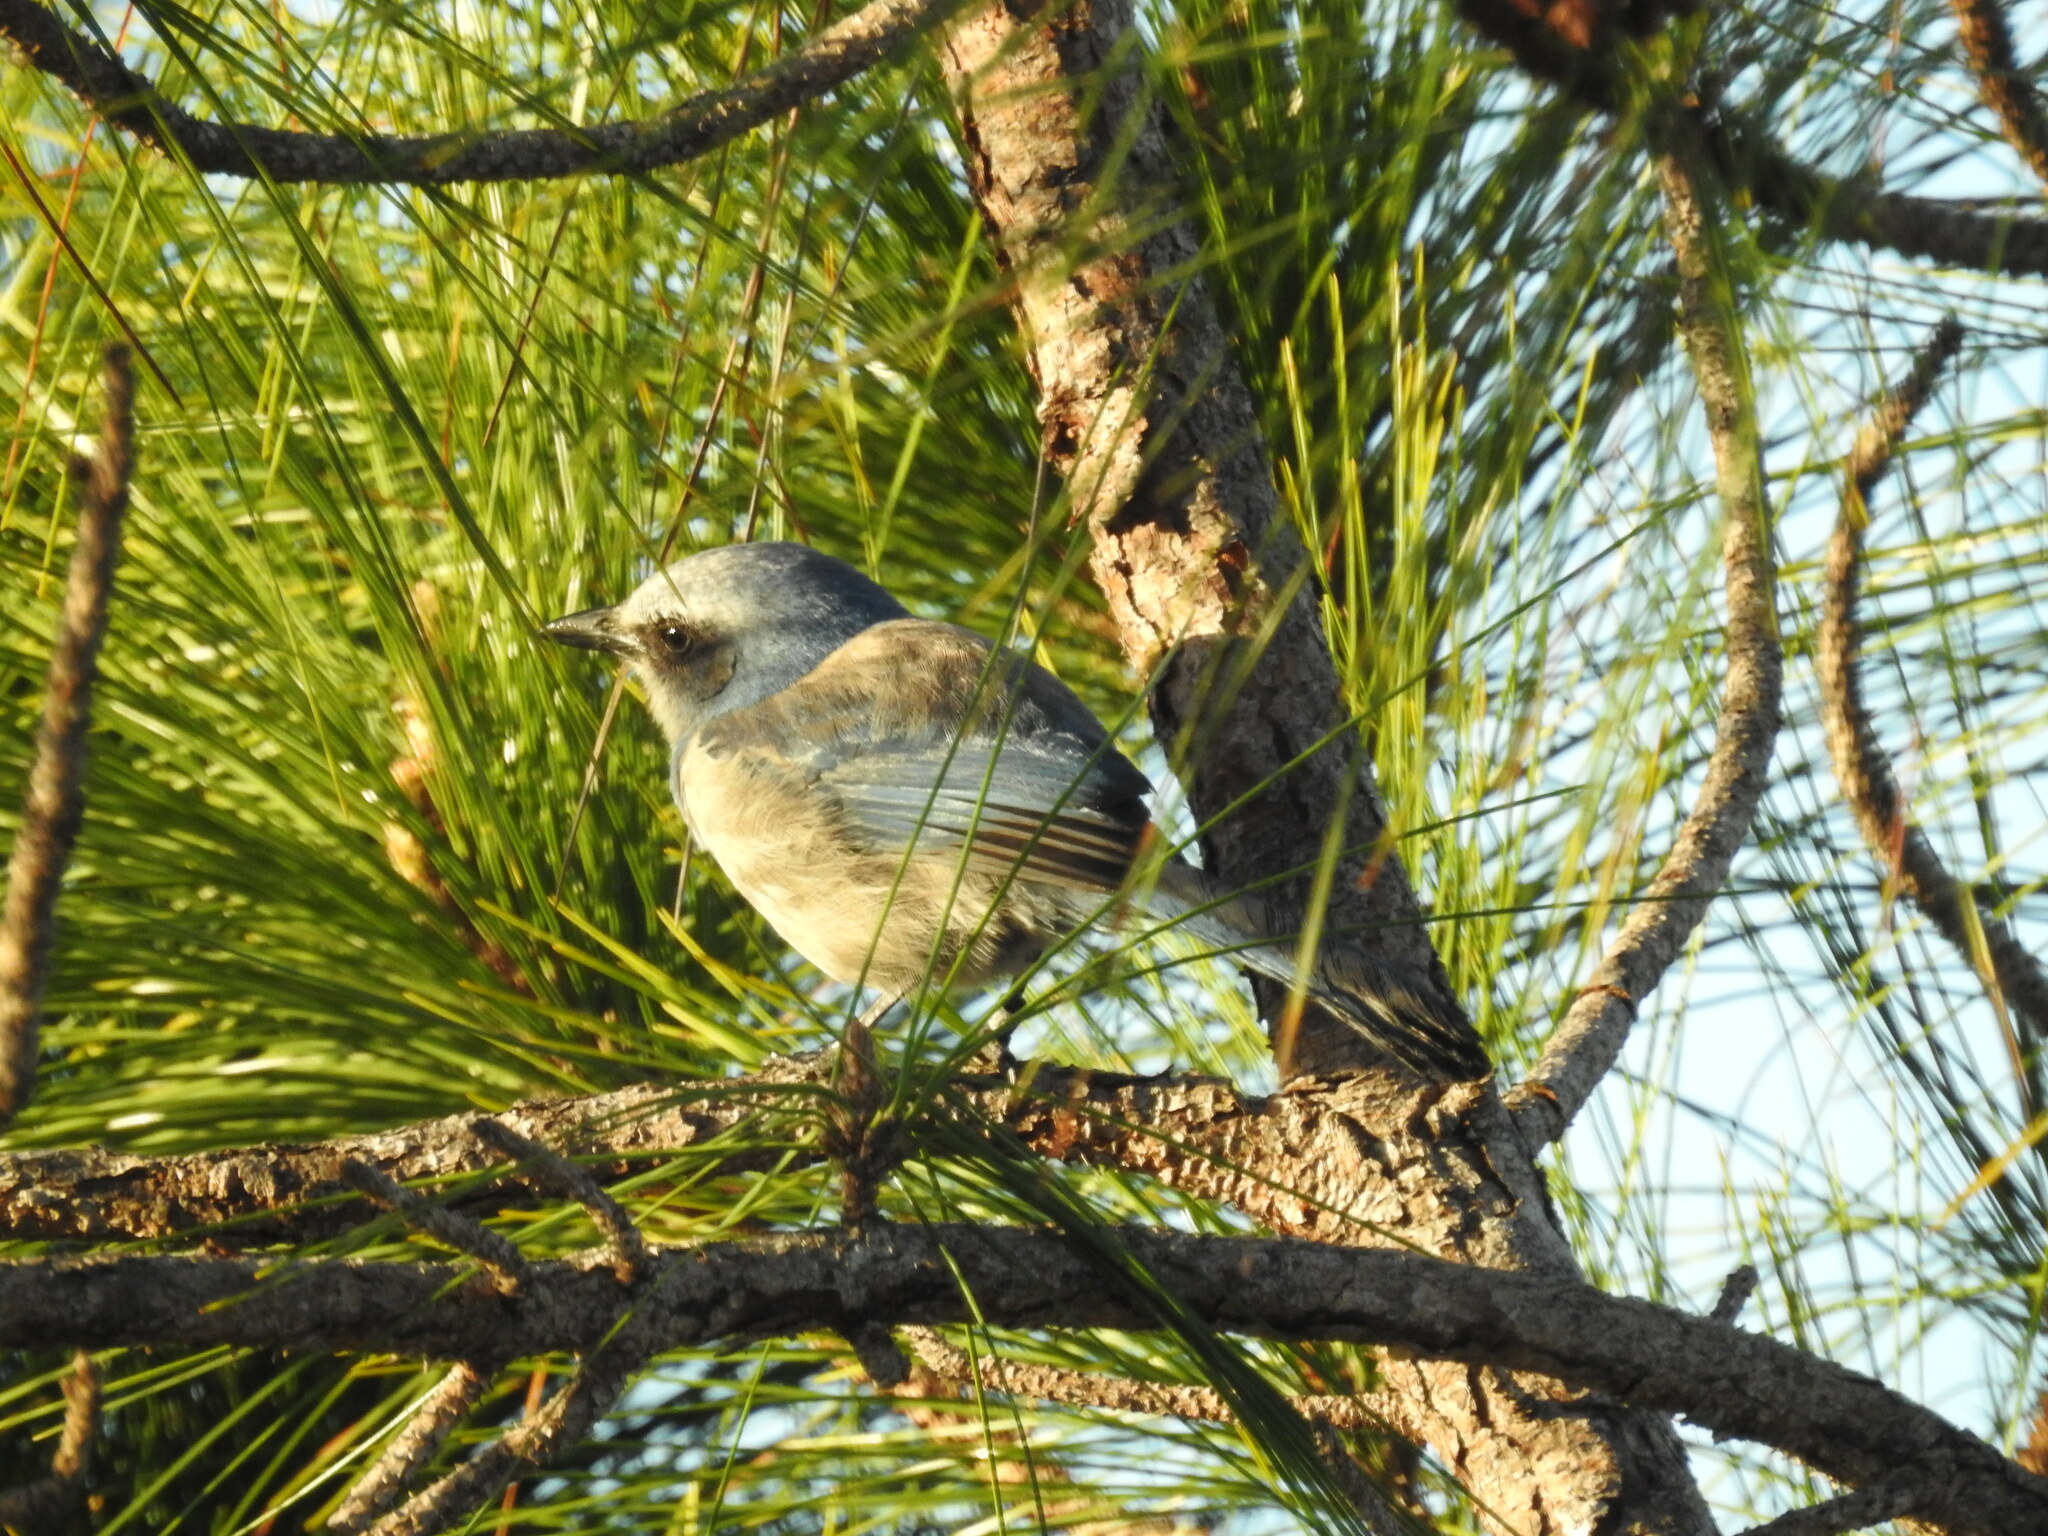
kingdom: Animalia
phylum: Chordata
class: Aves
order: Passeriformes
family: Corvidae
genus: Aphelocoma
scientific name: Aphelocoma coerulescens
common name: Florida scrub jay
